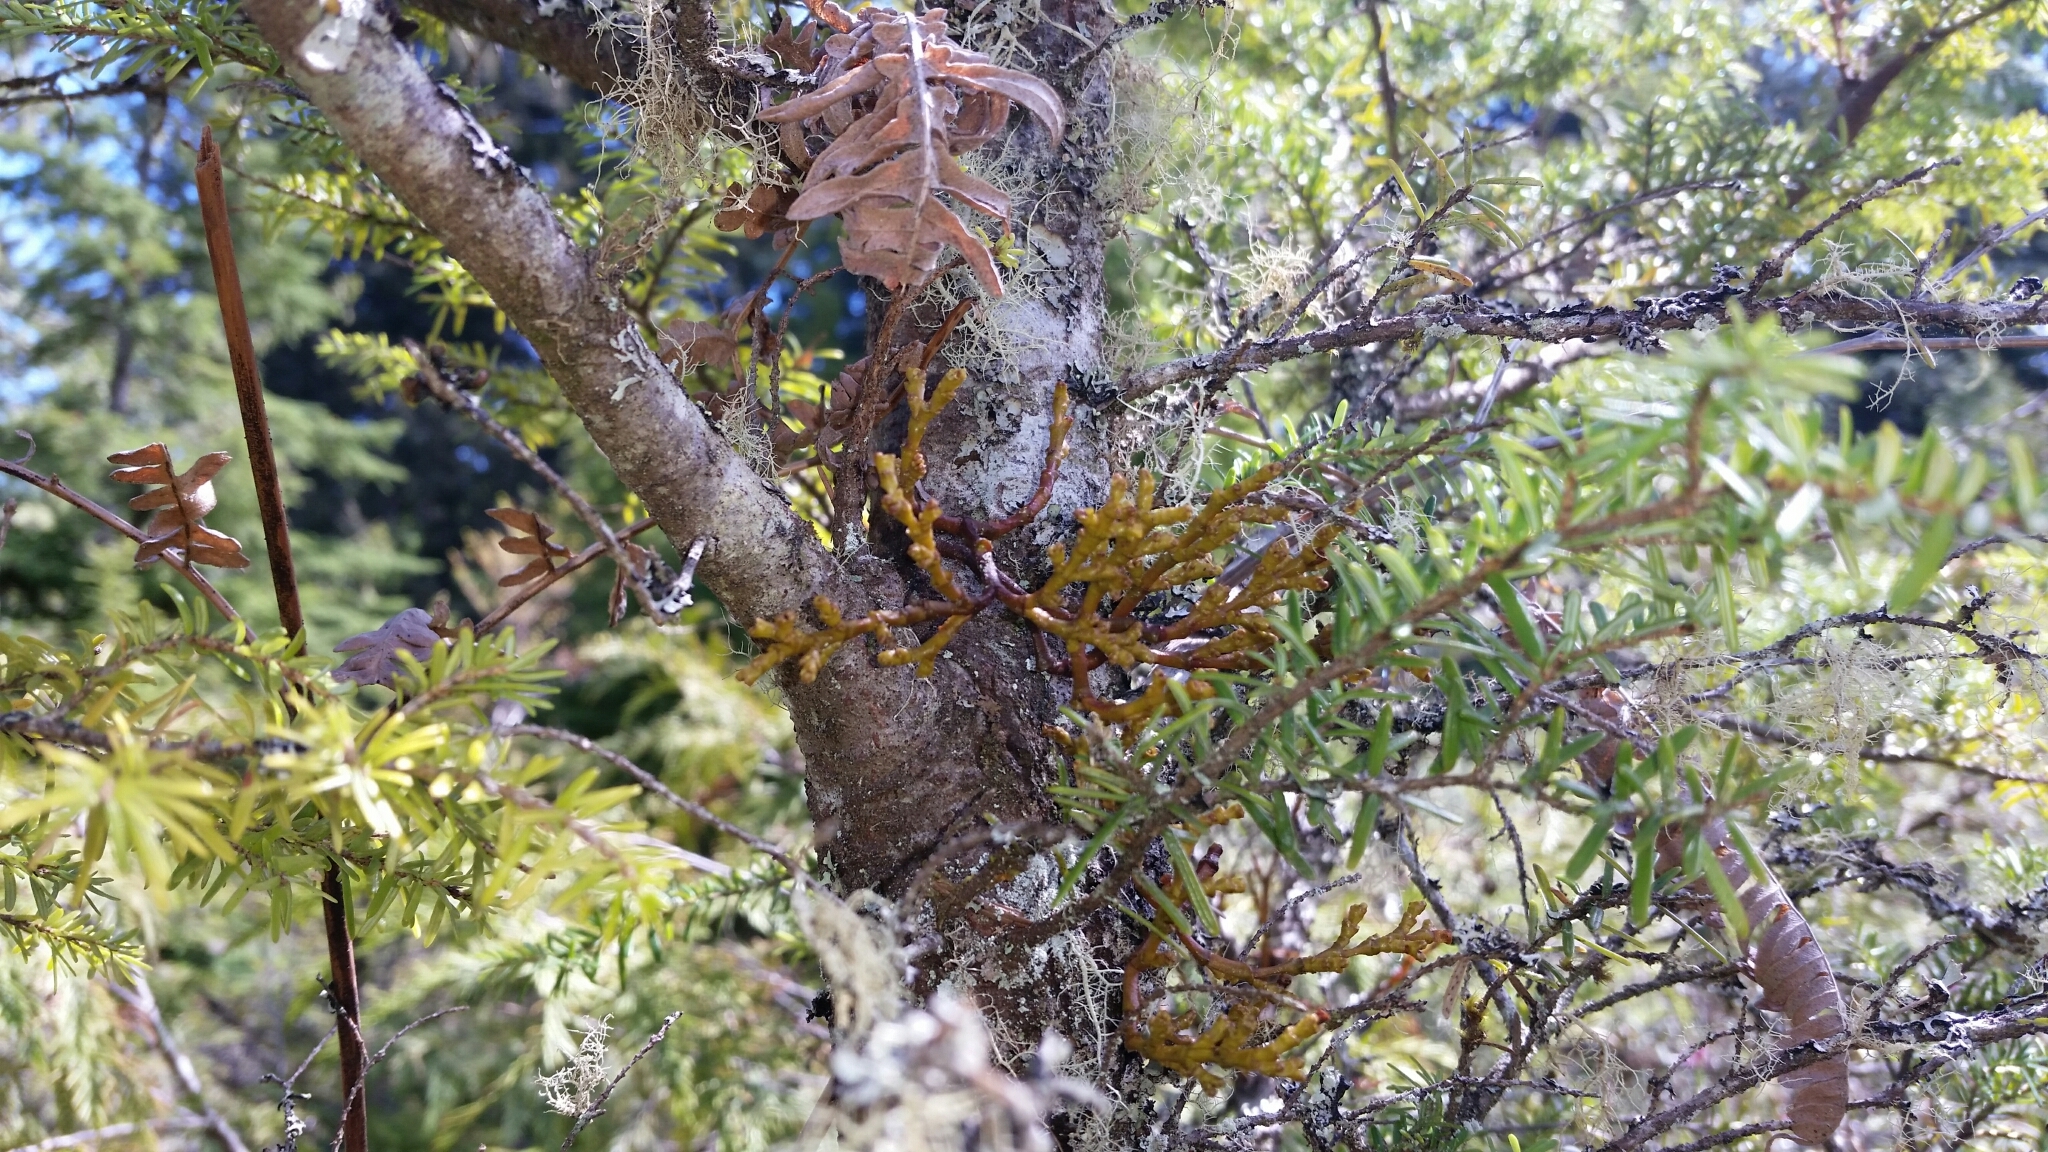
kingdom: Plantae
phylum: Tracheophyta
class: Magnoliopsida
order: Santalales
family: Viscaceae
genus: Arceuthobium
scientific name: Arceuthobium campylopodum
